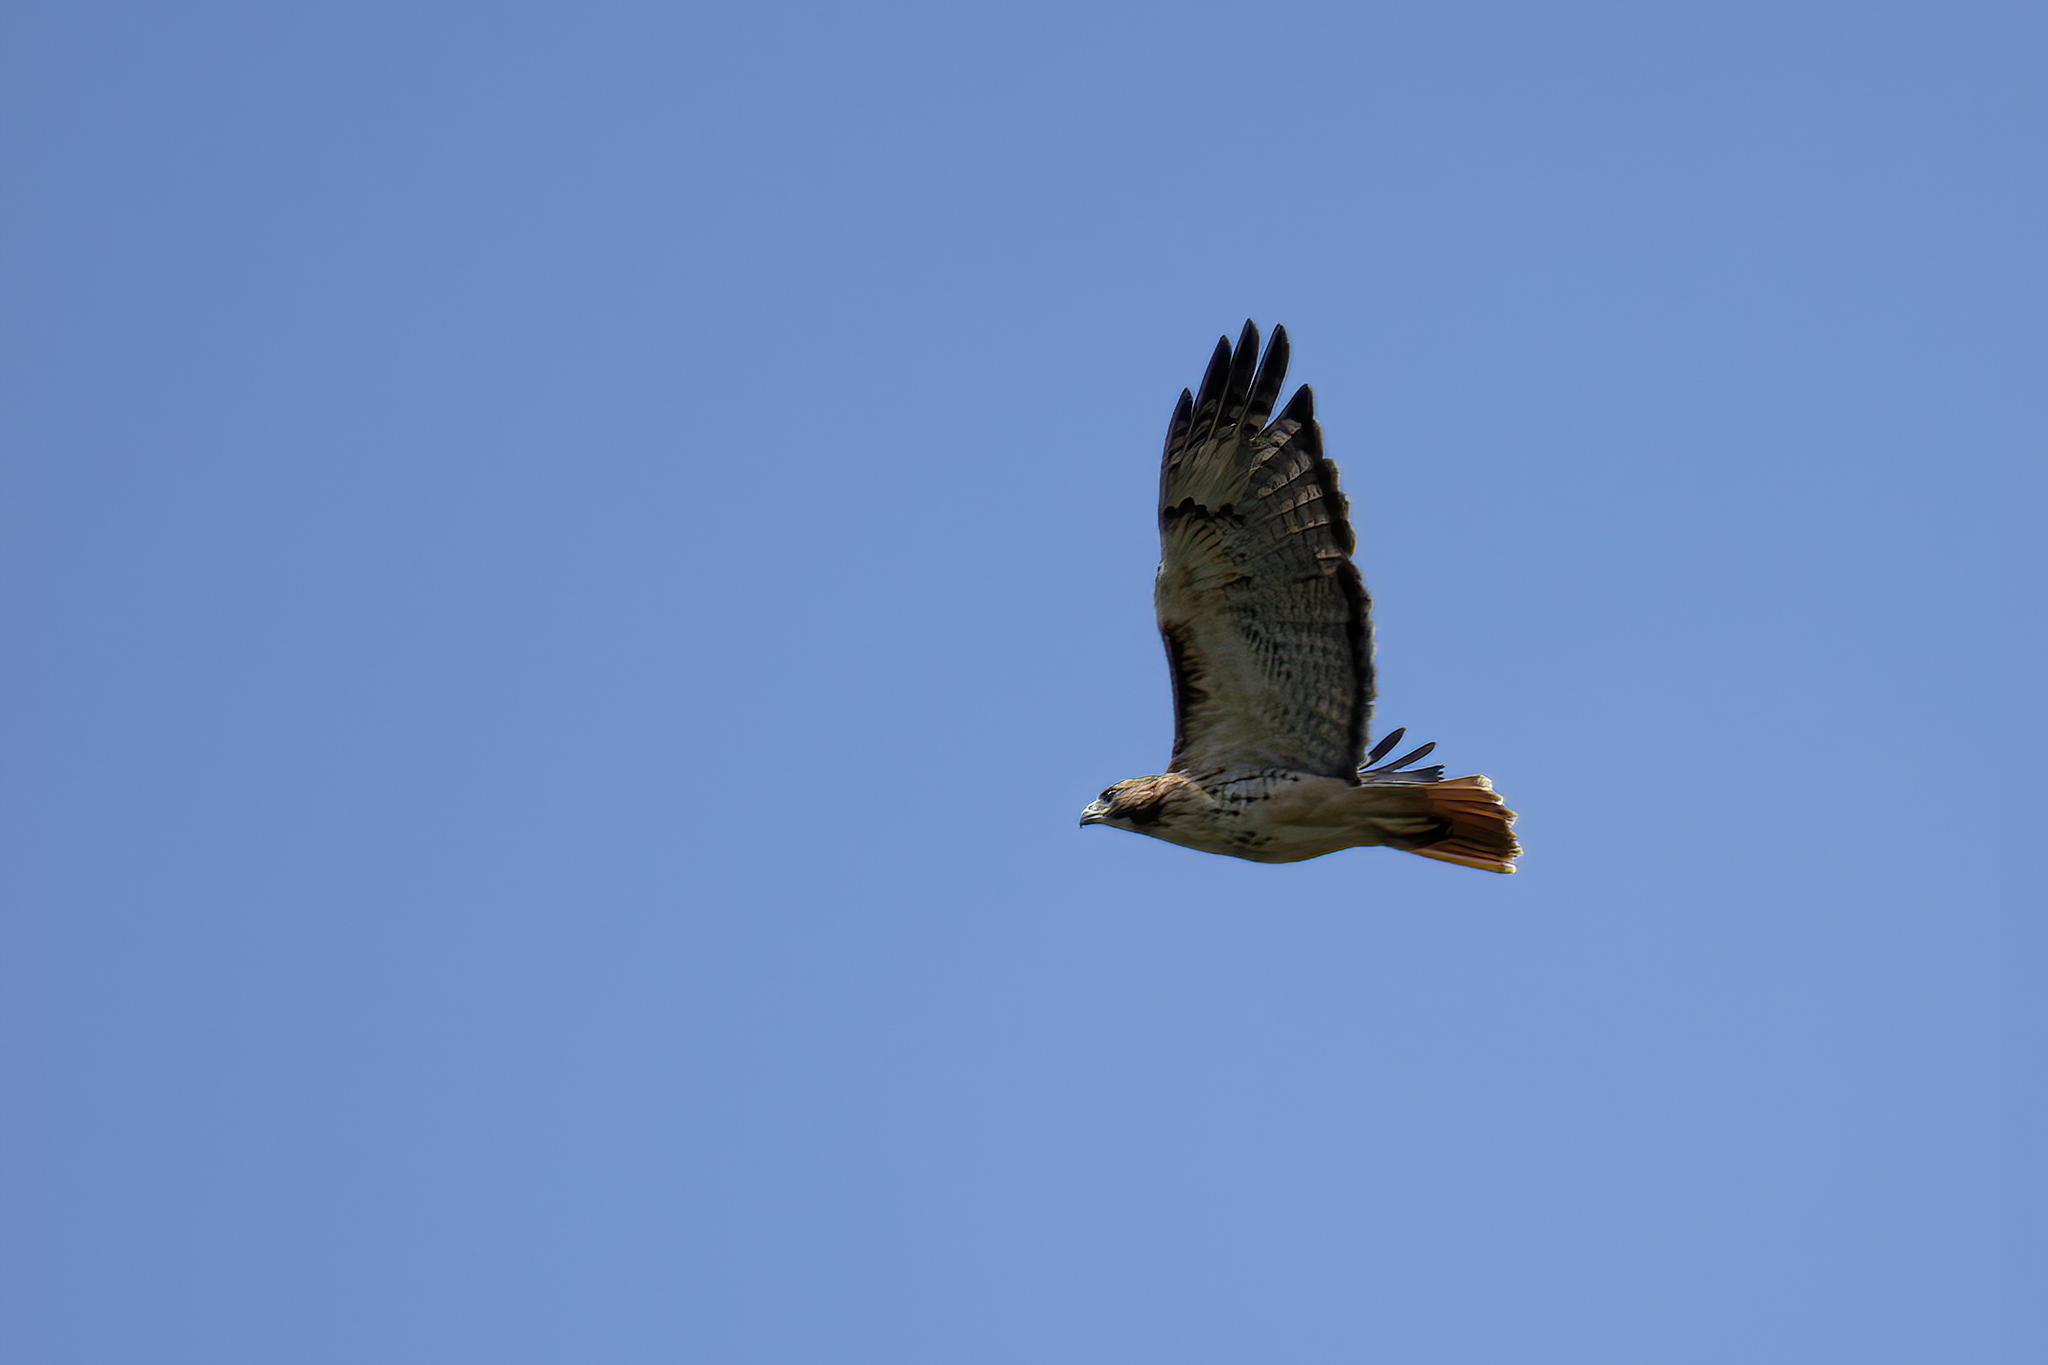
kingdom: Animalia
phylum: Chordata
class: Aves
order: Accipitriformes
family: Accipitridae
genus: Buteo
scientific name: Buteo jamaicensis
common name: Red-tailed hawk
